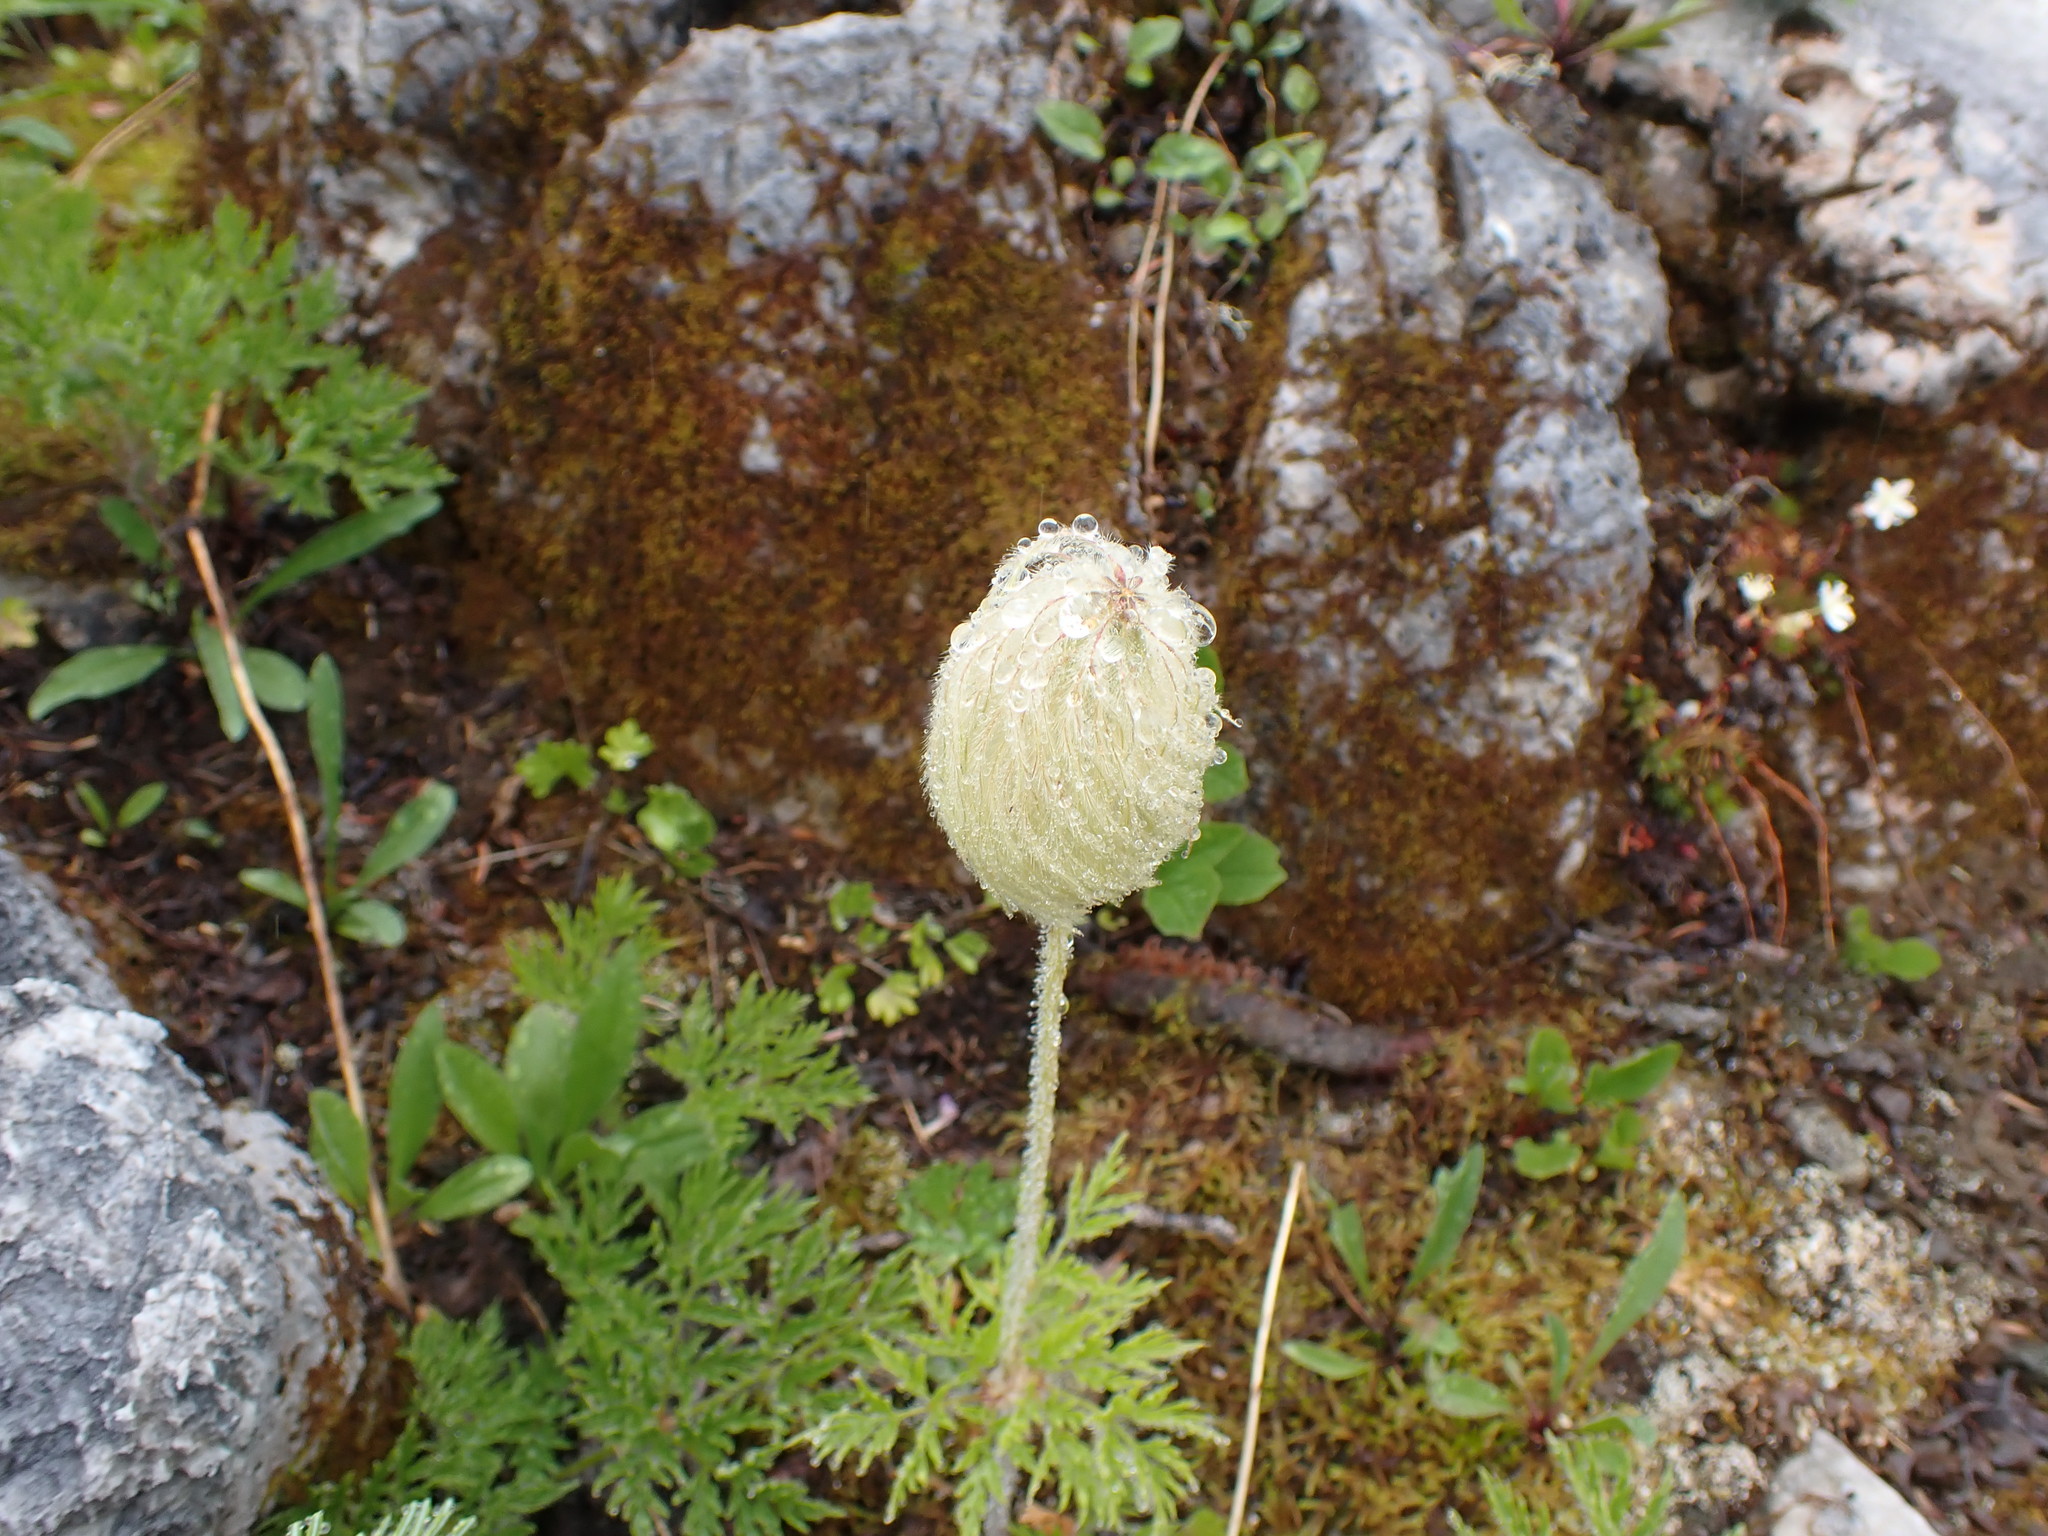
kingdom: Plantae
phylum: Tracheophyta
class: Magnoliopsida
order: Ranunculales
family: Ranunculaceae
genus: Pulsatilla
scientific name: Pulsatilla occidentalis
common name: Mountain pasqueflower
